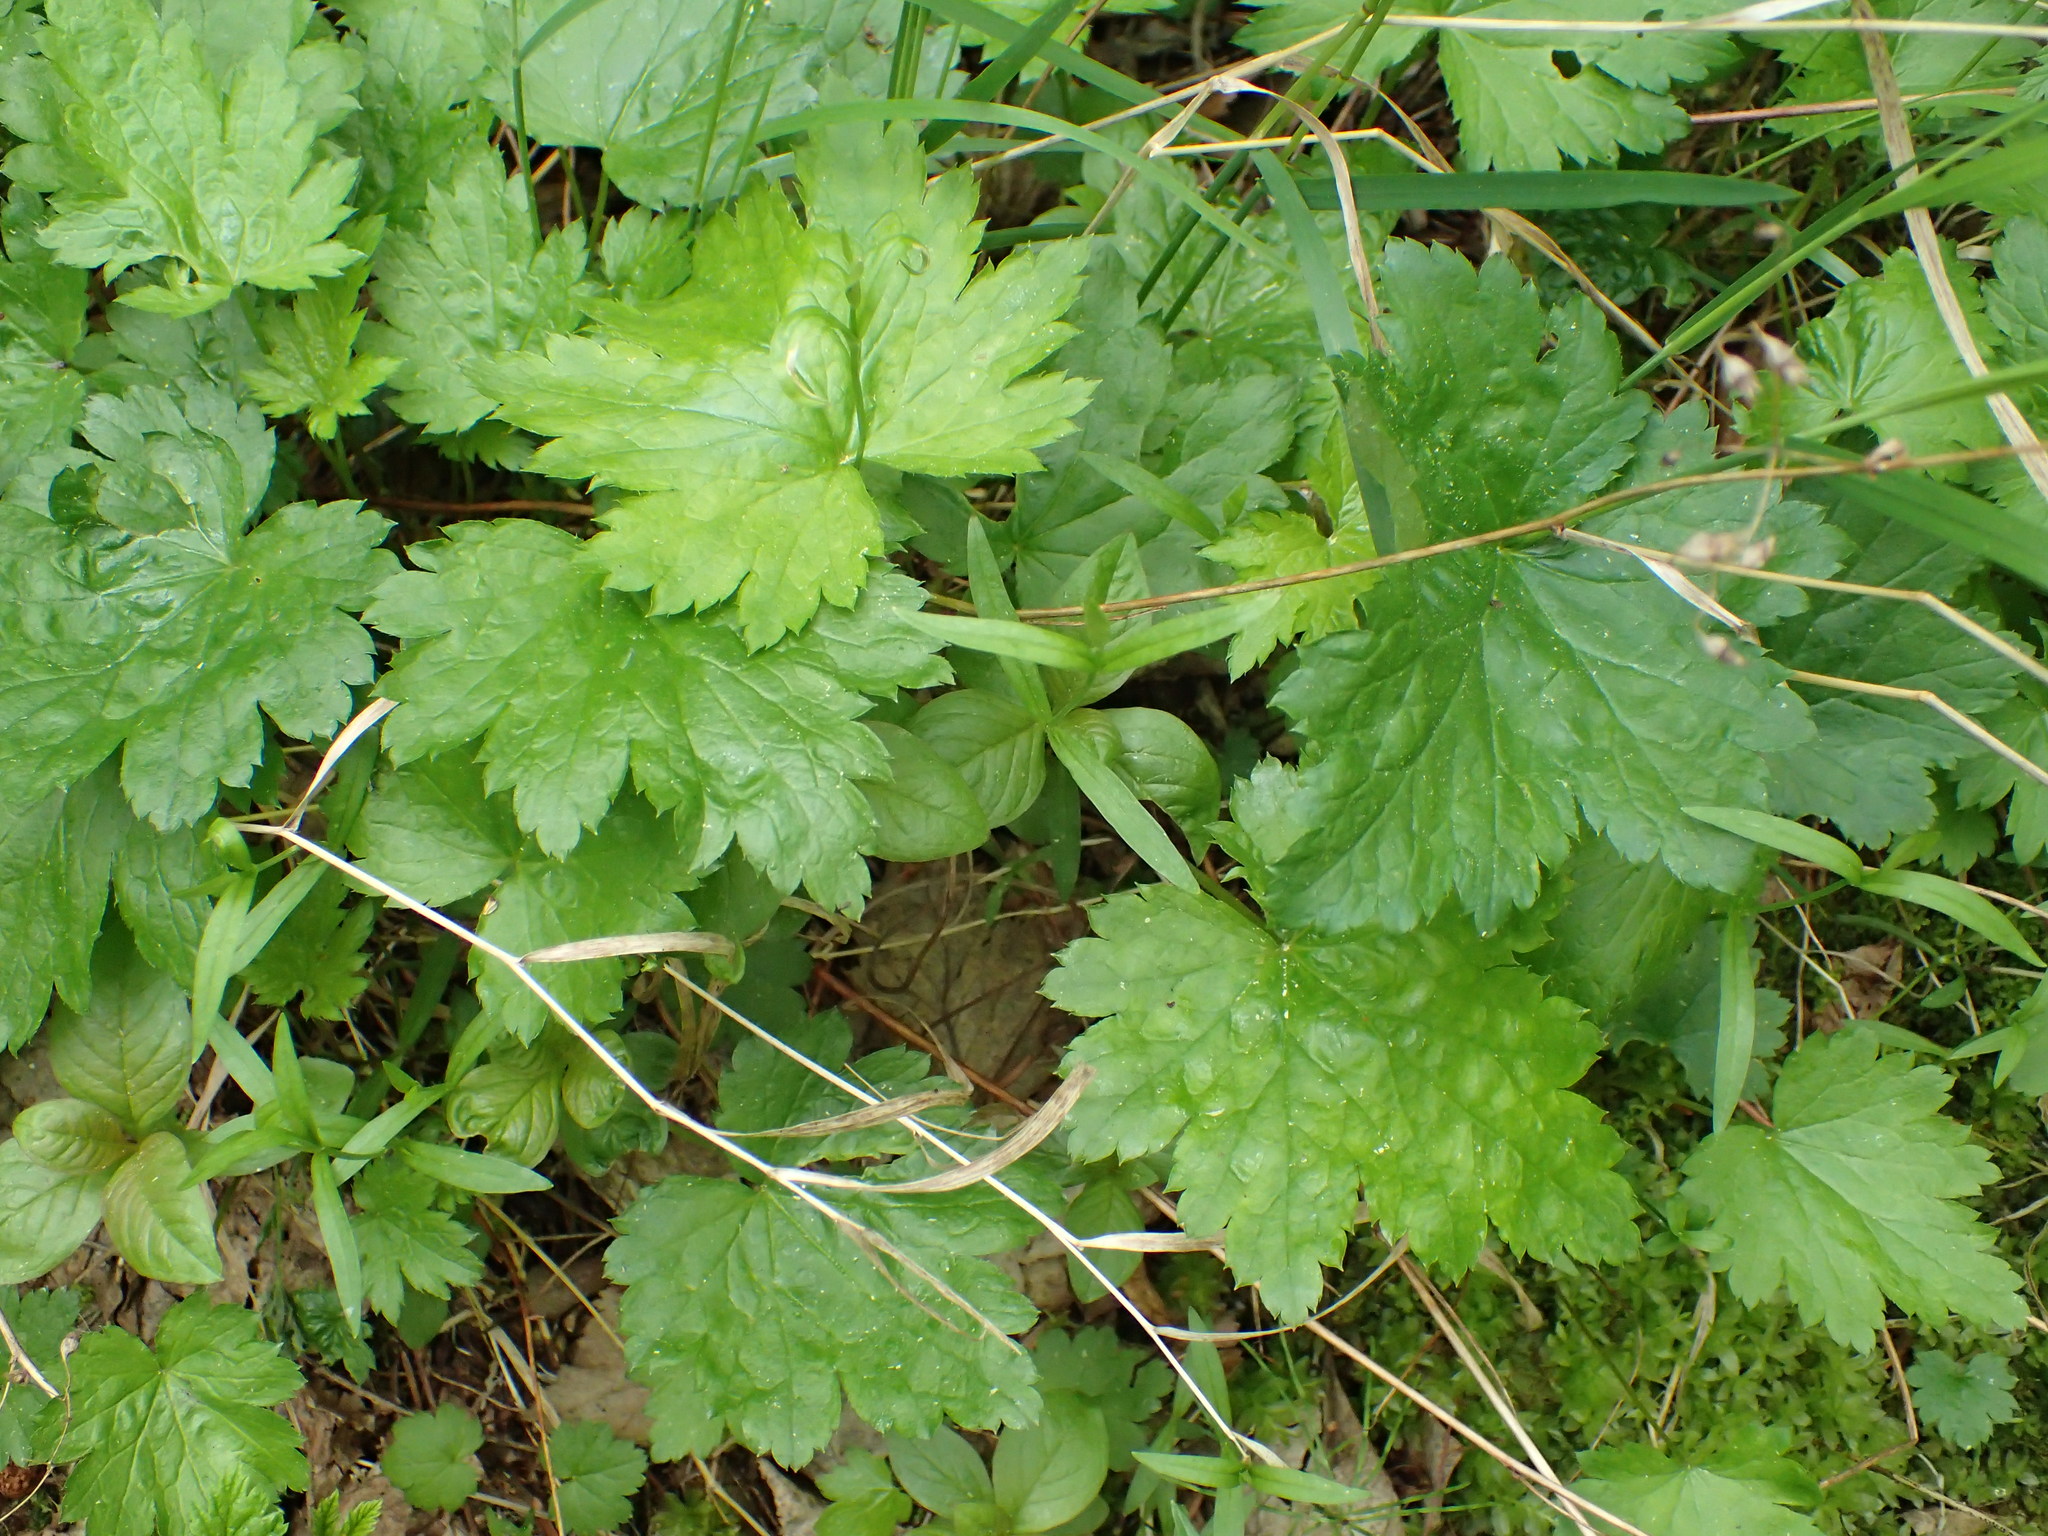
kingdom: Plantae
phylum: Tracheophyta
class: Magnoliopsida
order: Saxifragales
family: Saxifragaceae
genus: Heuchera
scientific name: Heuchera glabra
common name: Alpine alumroot
